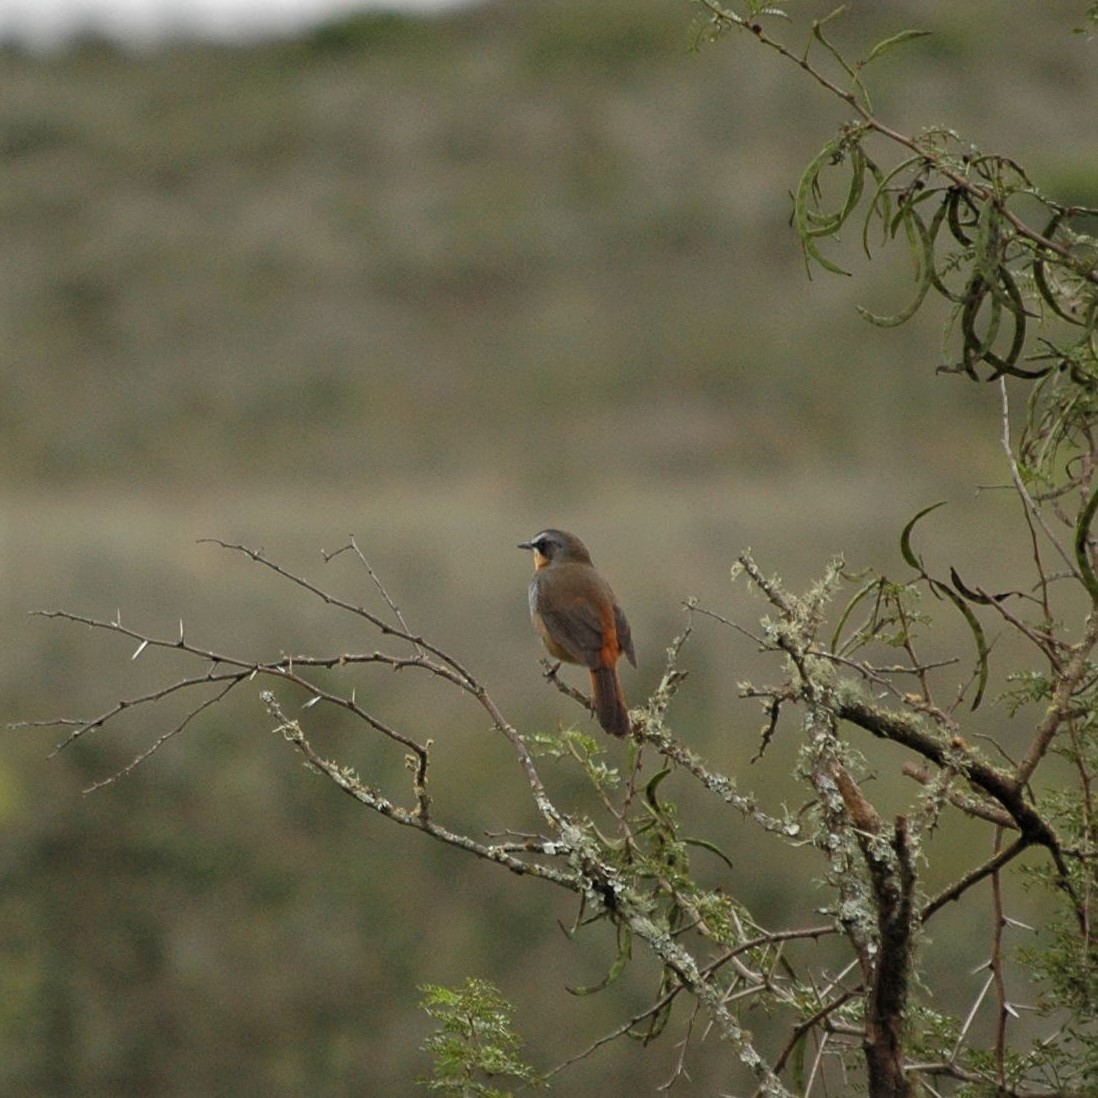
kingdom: Animalia
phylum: Chordata
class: Aves
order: Passeriformes
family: Muscicapidae
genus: Cossypha
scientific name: Cossypha caffra
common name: Cape robin-chat
